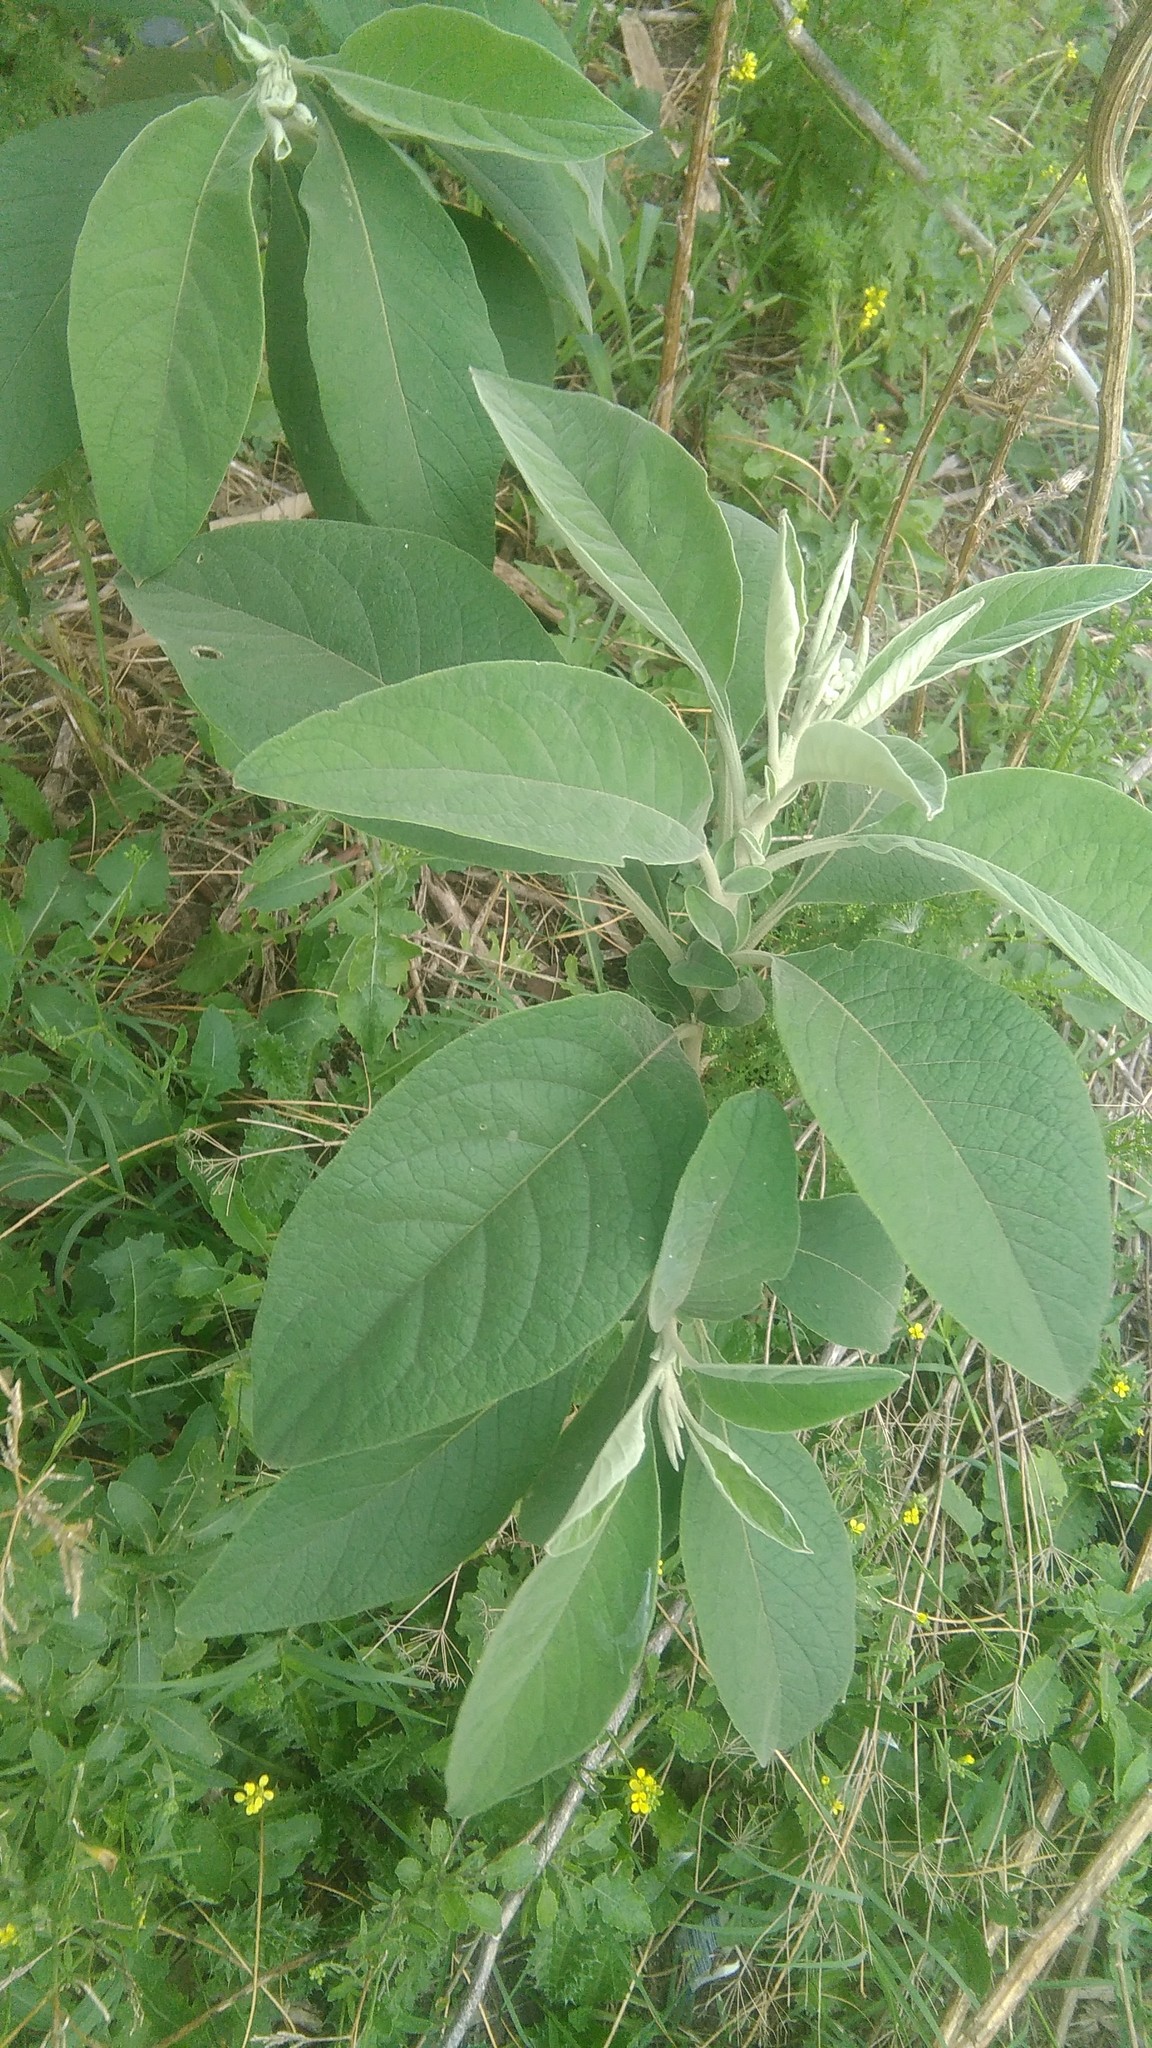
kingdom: Plantae
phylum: Tracheophyta
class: Magnoliopsida
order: Solanales
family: Solanaceae
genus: Solanum
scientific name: Solanum granulosoleprosum
